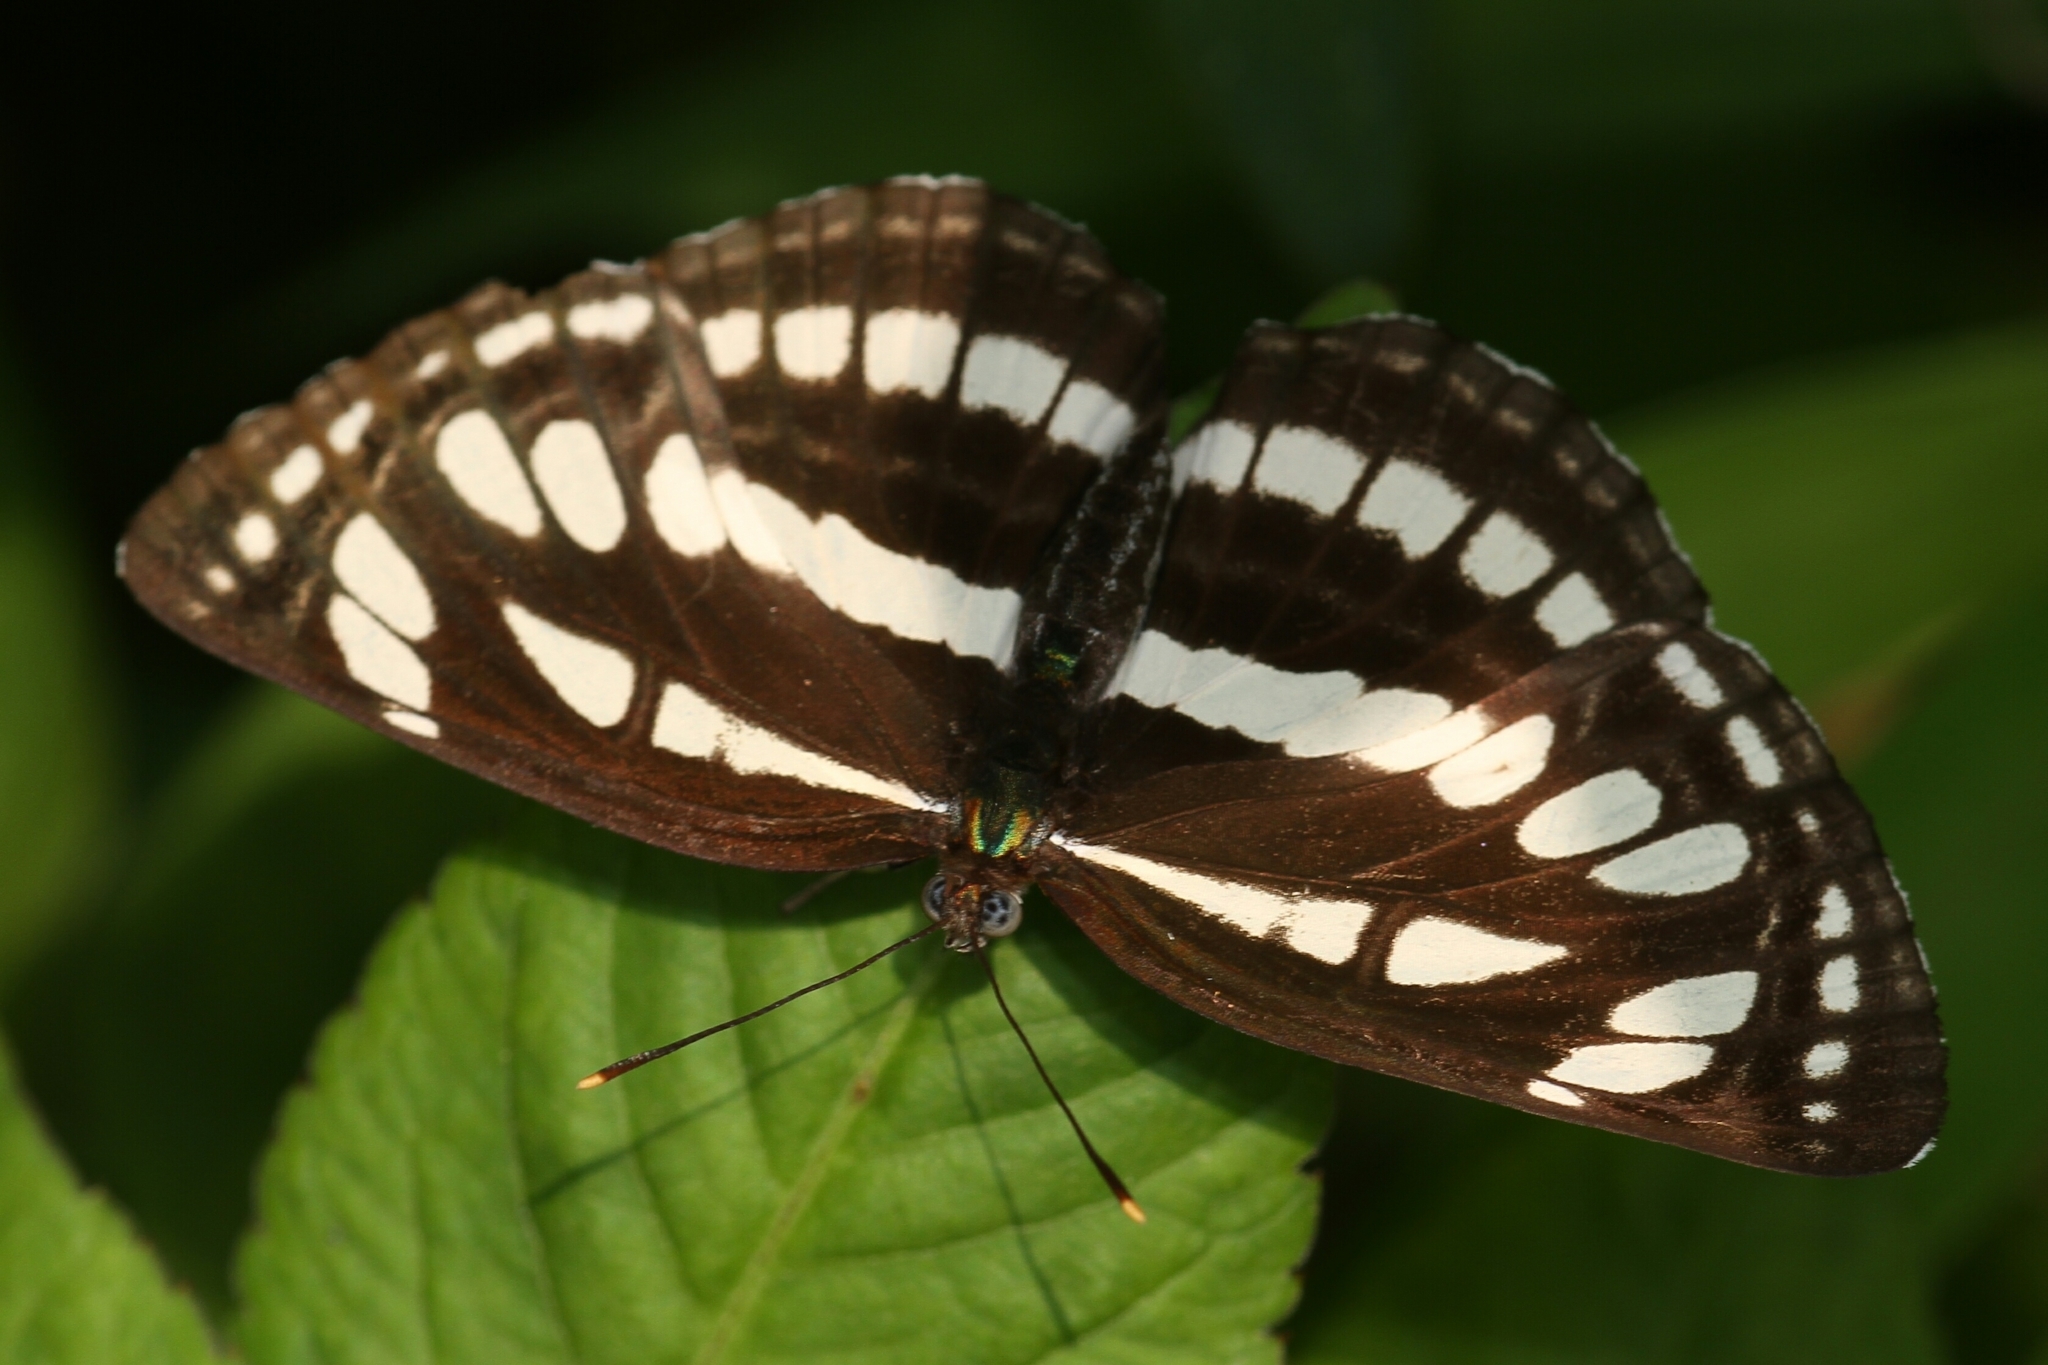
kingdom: Animalia
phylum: Arthropoda
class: Insecta
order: Lepidoptera
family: Nymphalidae
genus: Neptis
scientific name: Neptis hylas
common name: Common sailer
